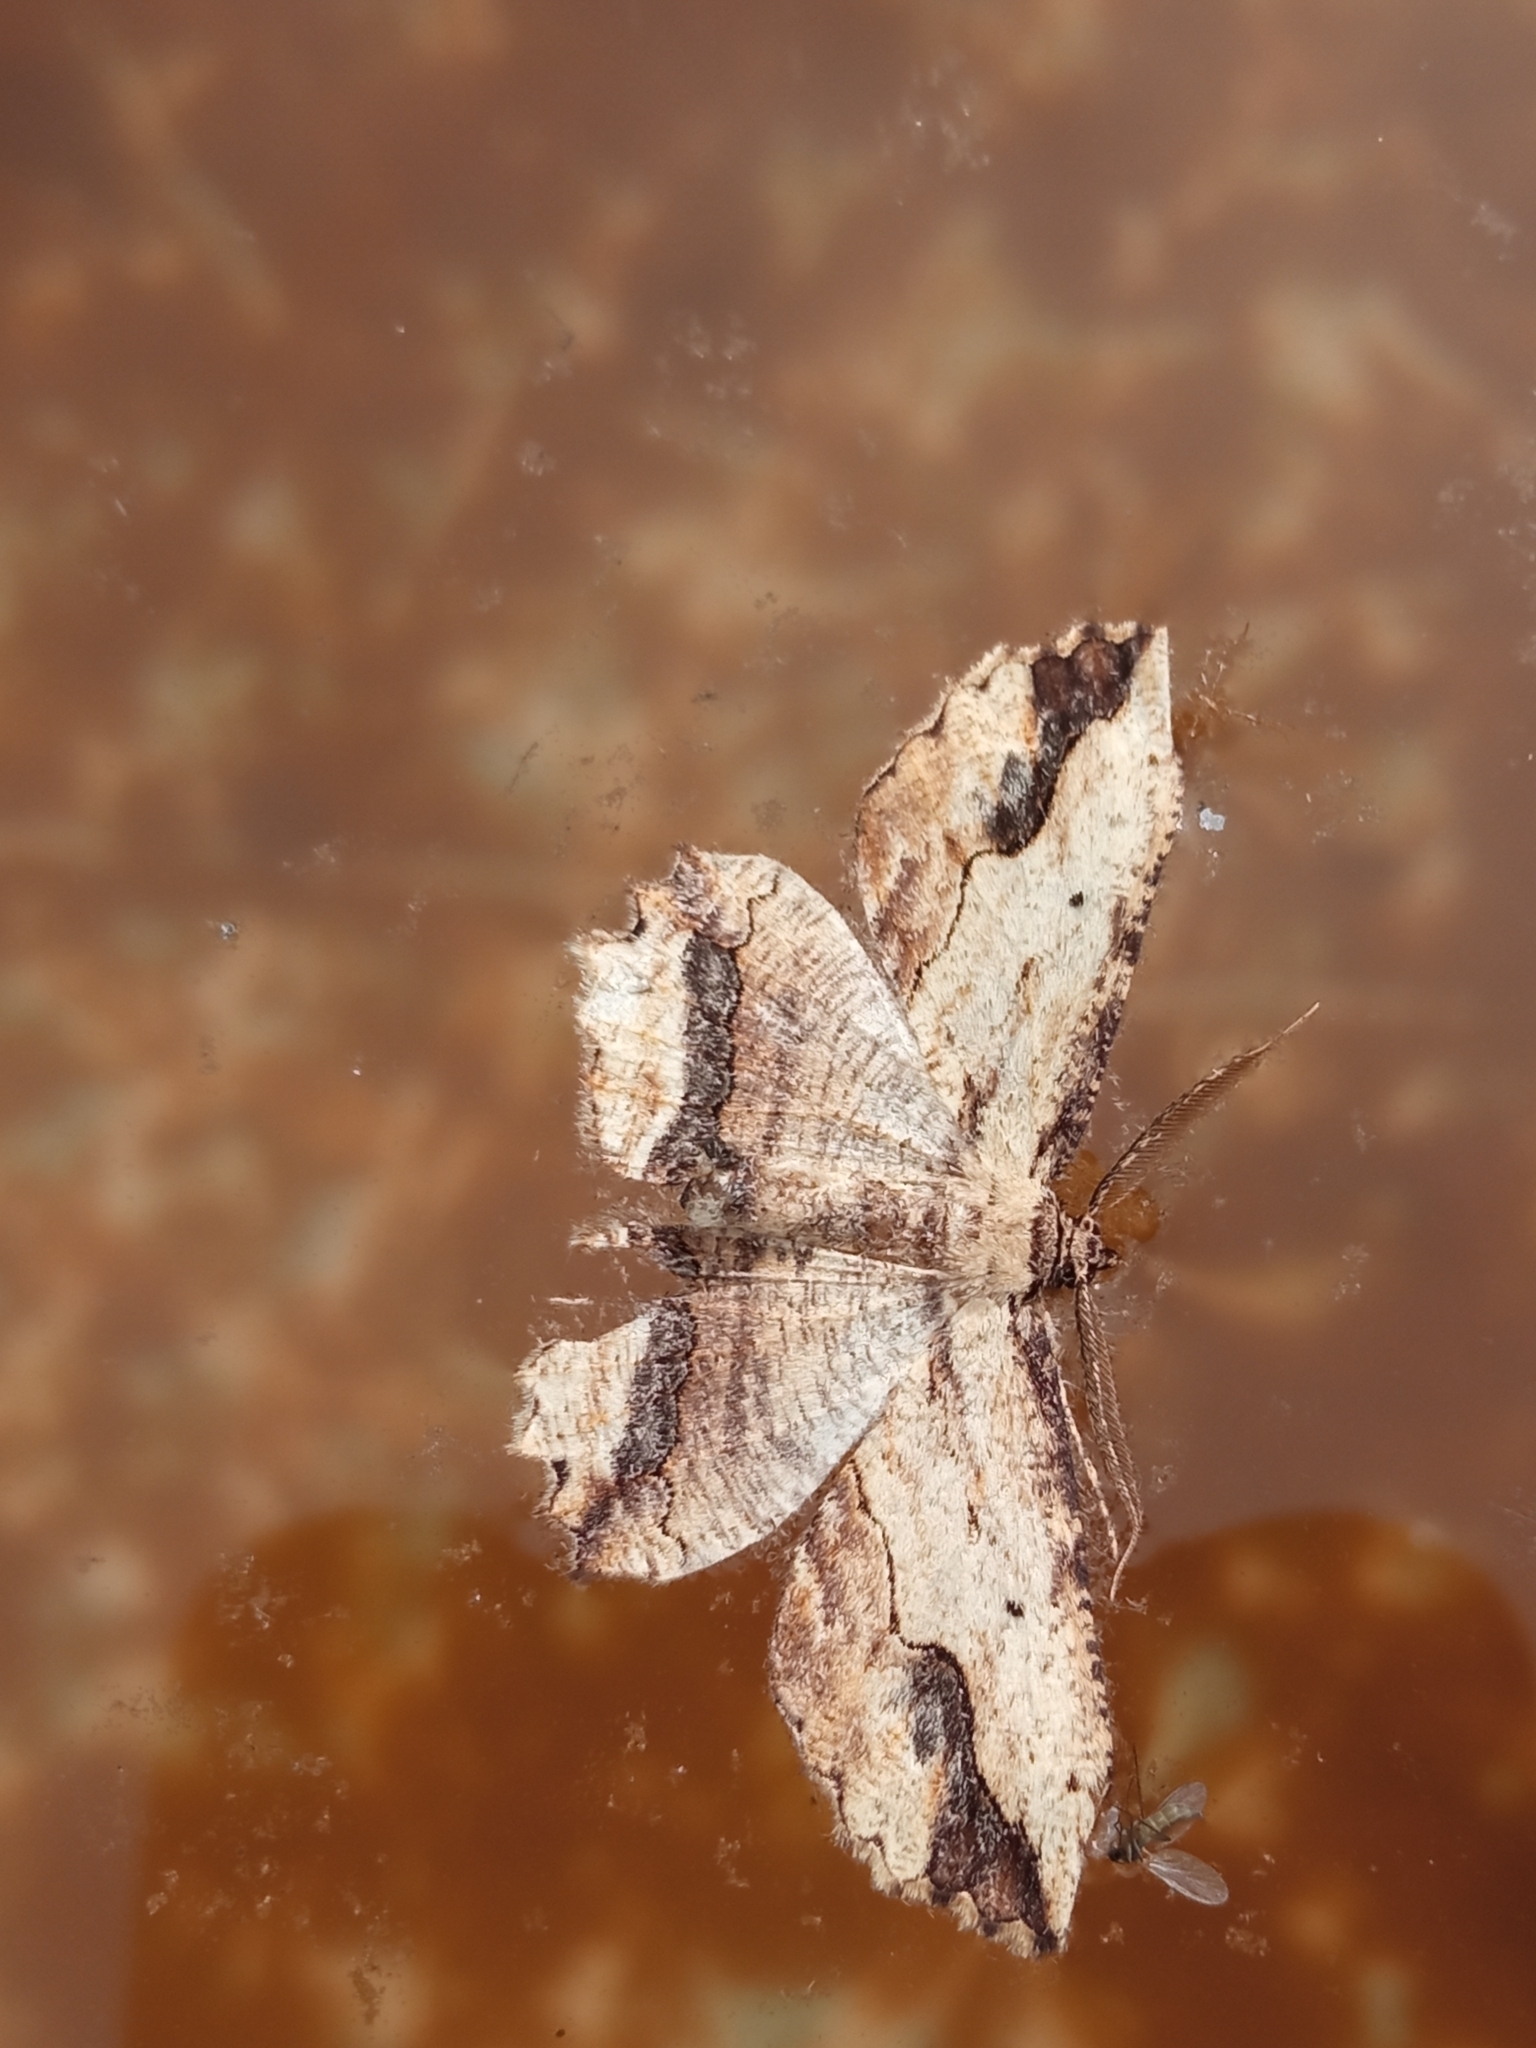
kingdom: Animalia
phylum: Arthropoda
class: Insecta
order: Lepidoptera
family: Geometridae
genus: Menophra
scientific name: Menophra abruptaria
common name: Waved umber
